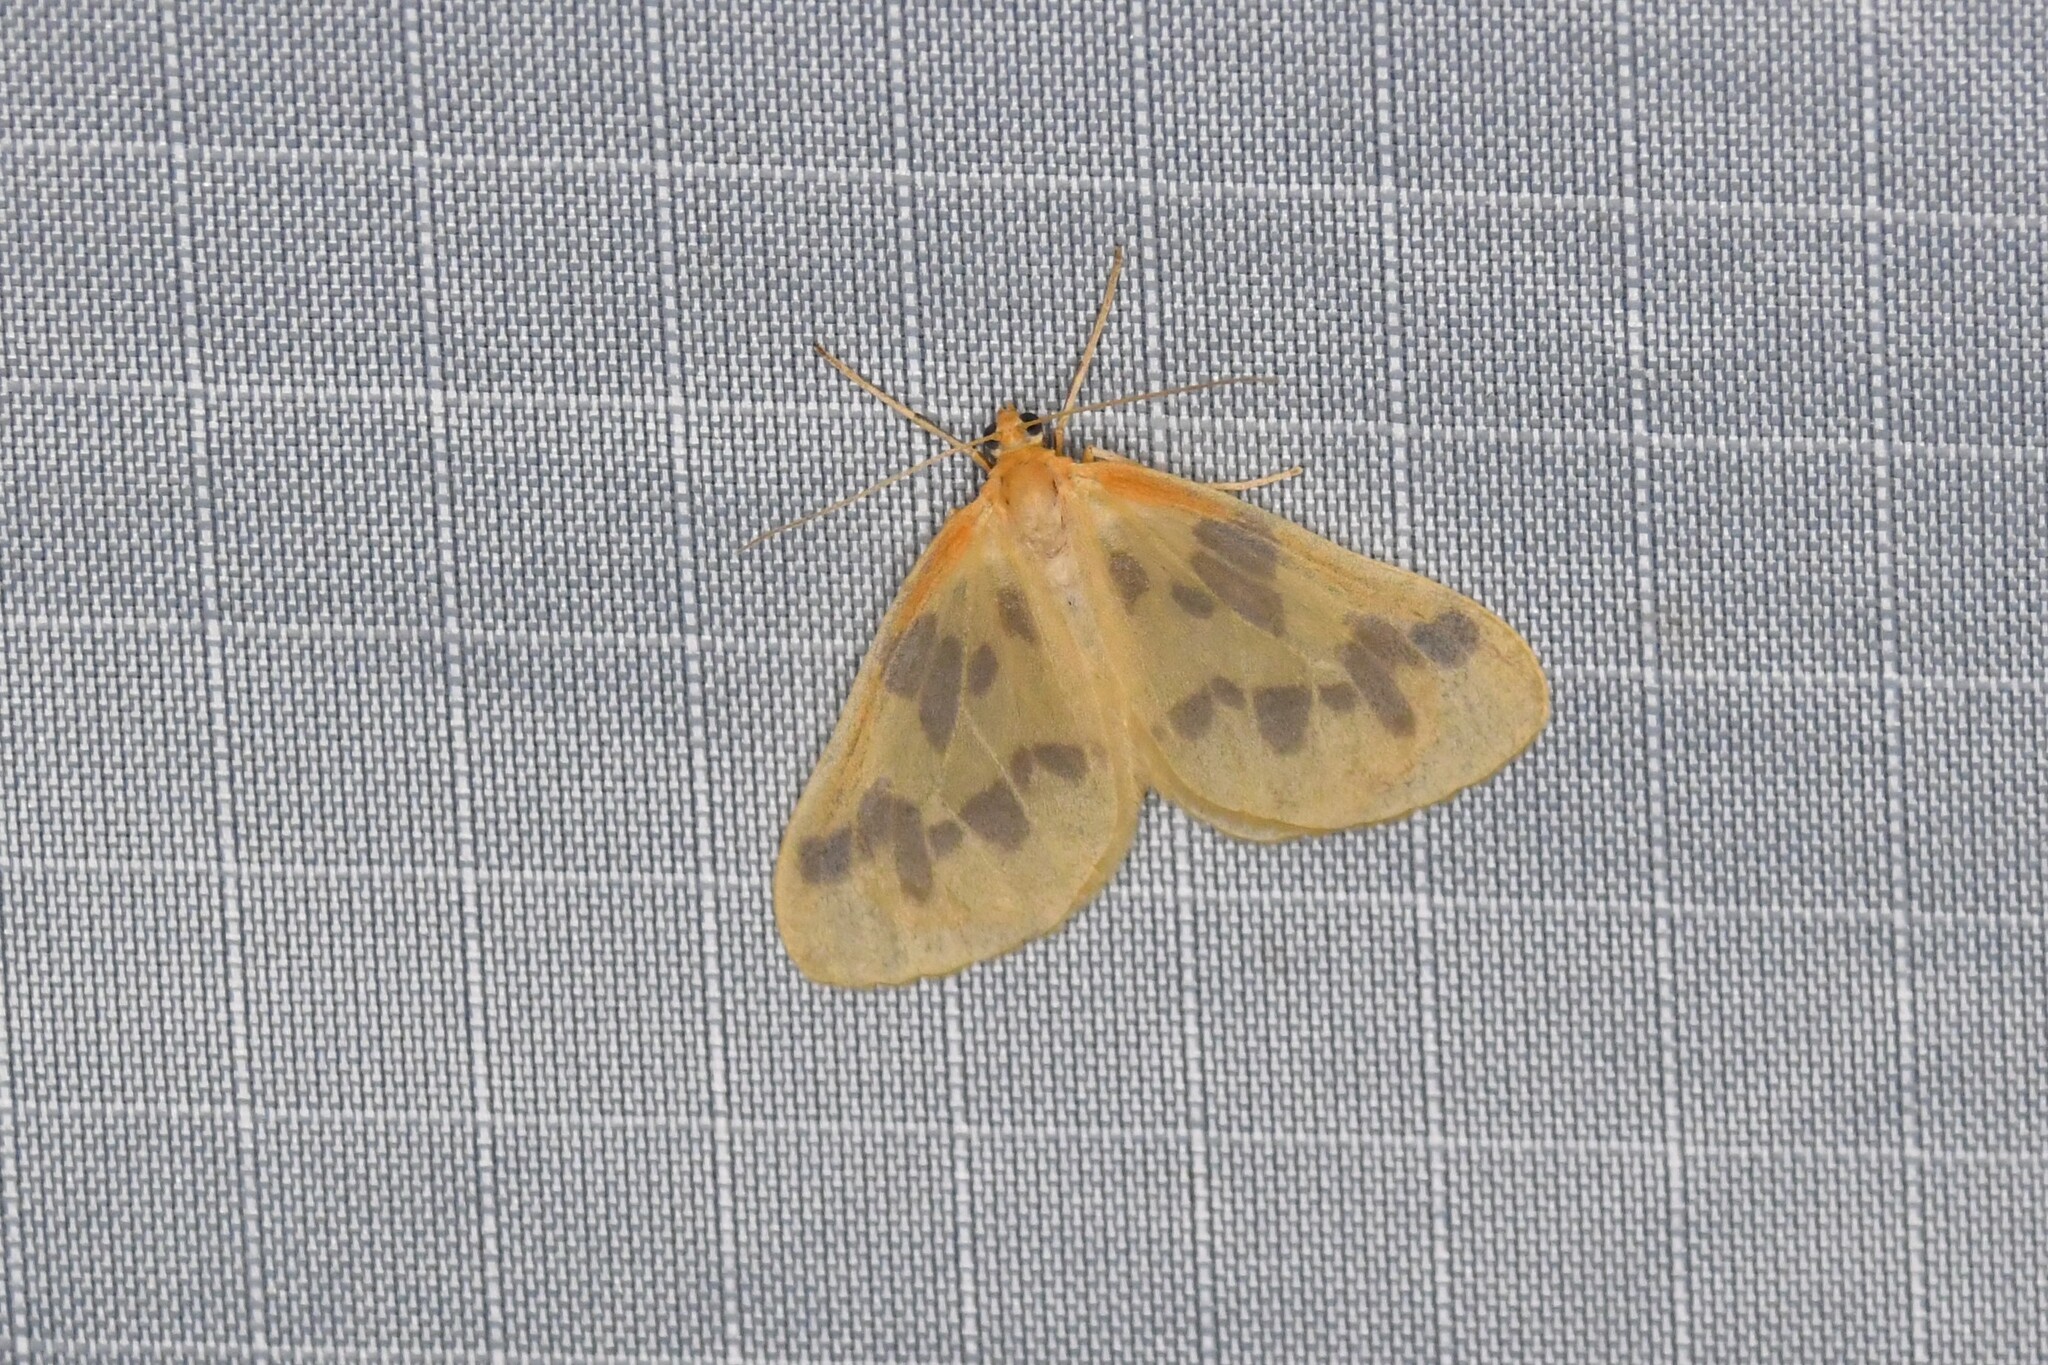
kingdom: Animalia
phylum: Arthropoda
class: Insecta
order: Lepidoptera
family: Geometridae
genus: Eubaphe
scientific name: Eubaphe mendica
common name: Beggar
